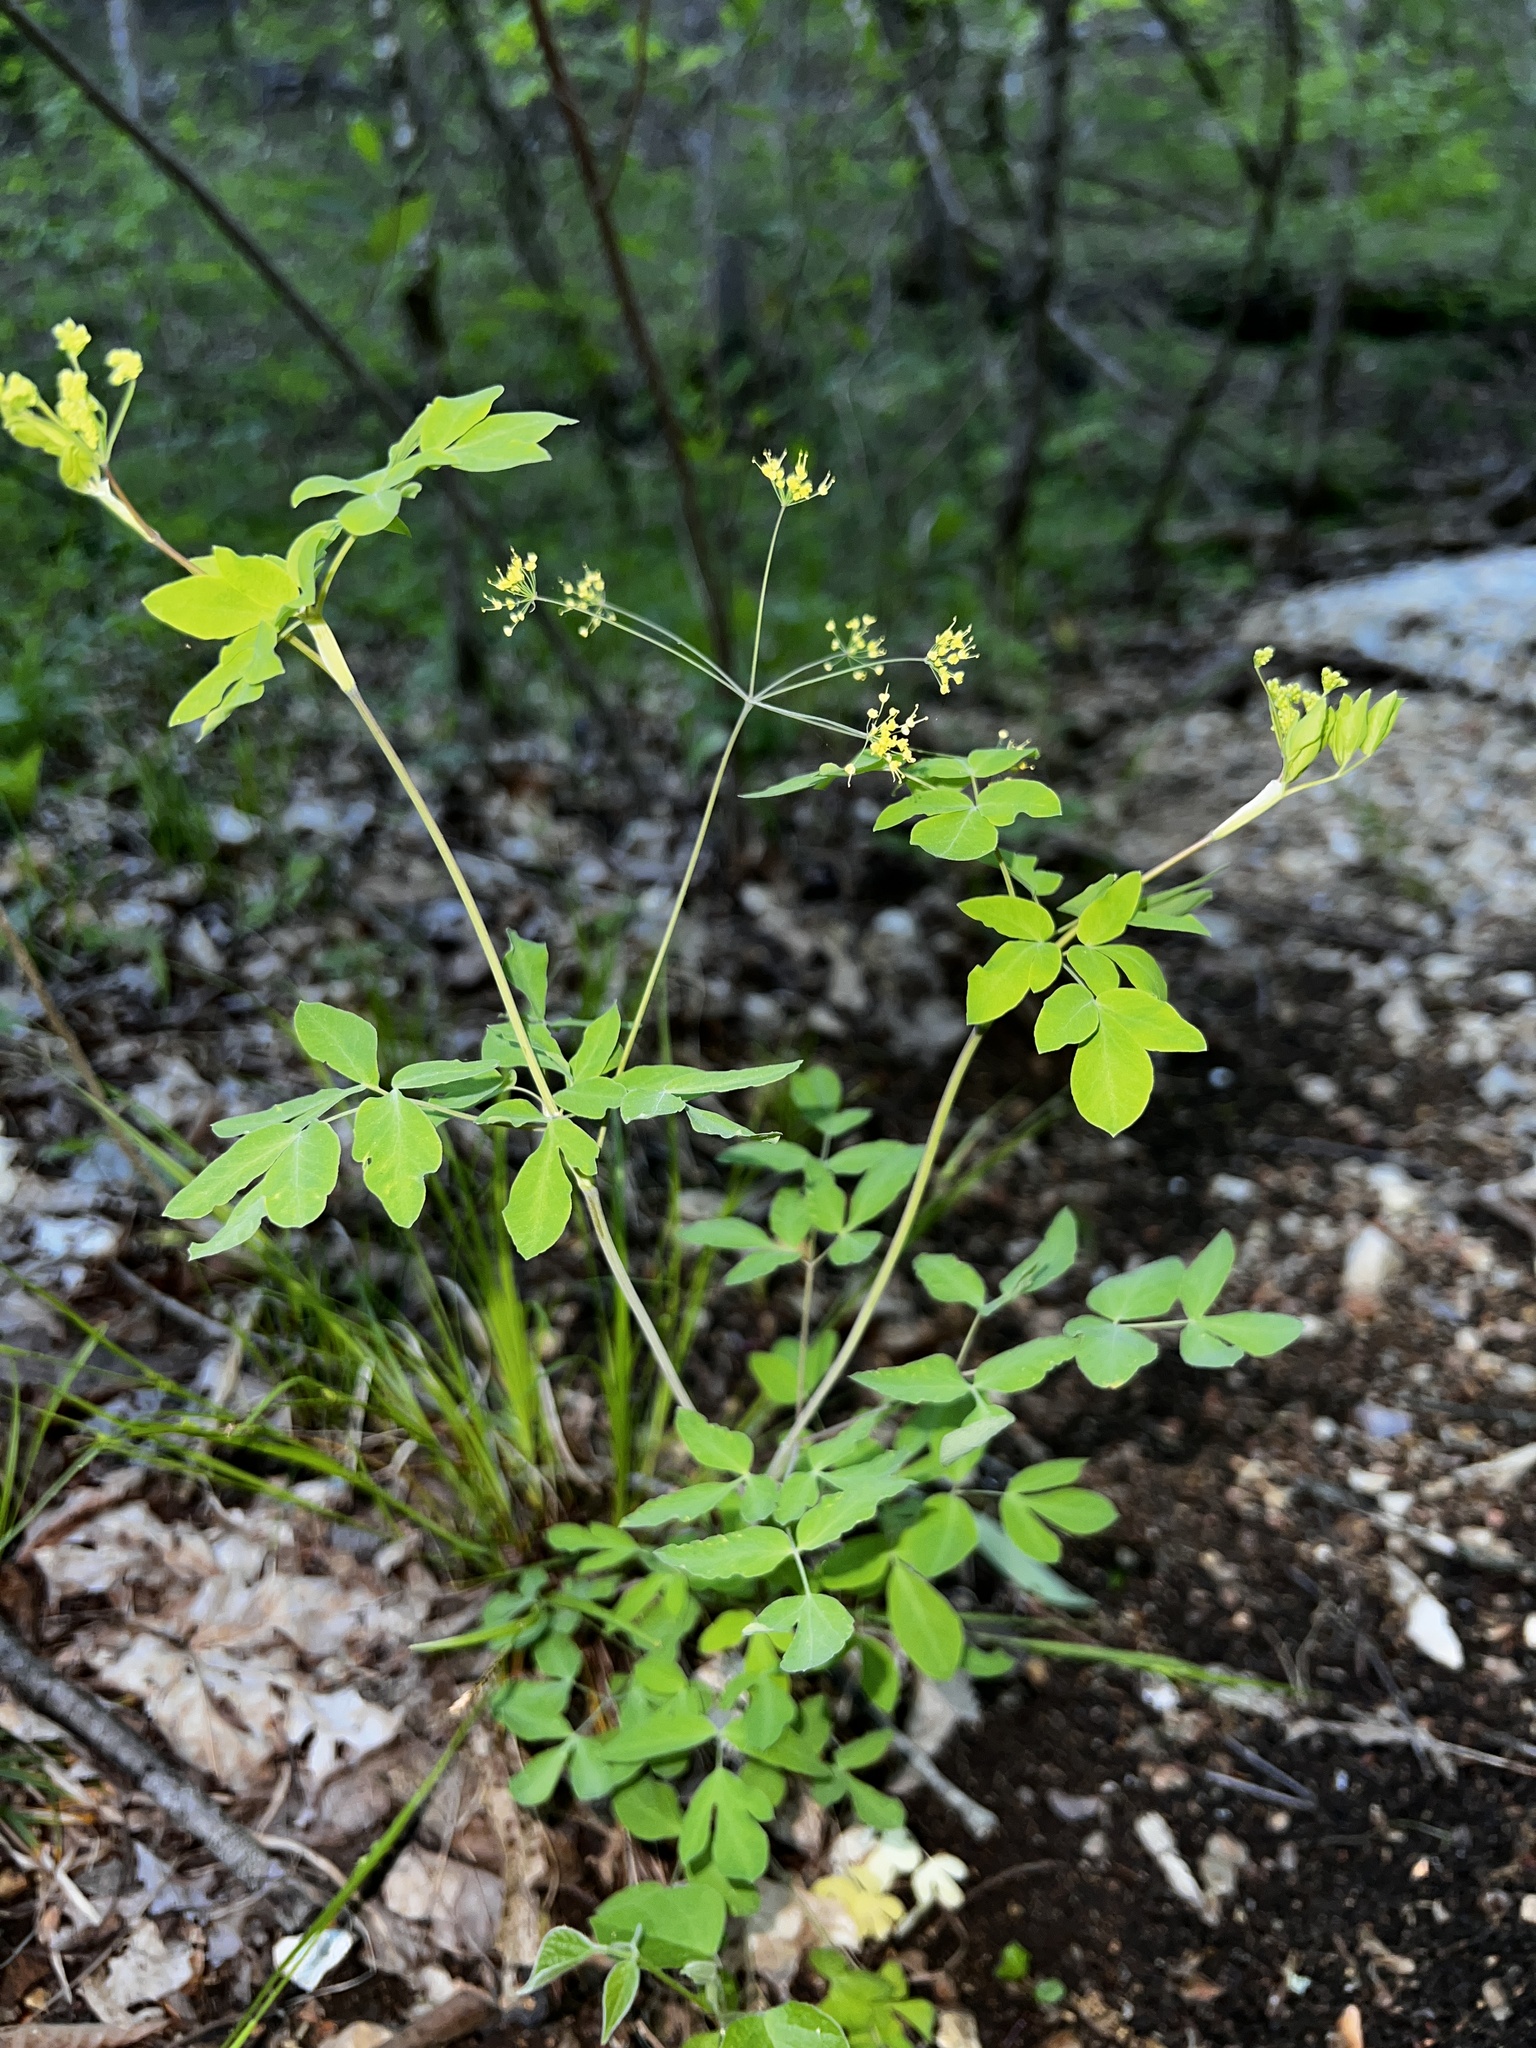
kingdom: Plantae
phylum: Tracheophyta
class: Magnoliopsida
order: Apiales
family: Apiaceae
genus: Taenidia
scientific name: Taenidia integerrima
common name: Golden alexander
